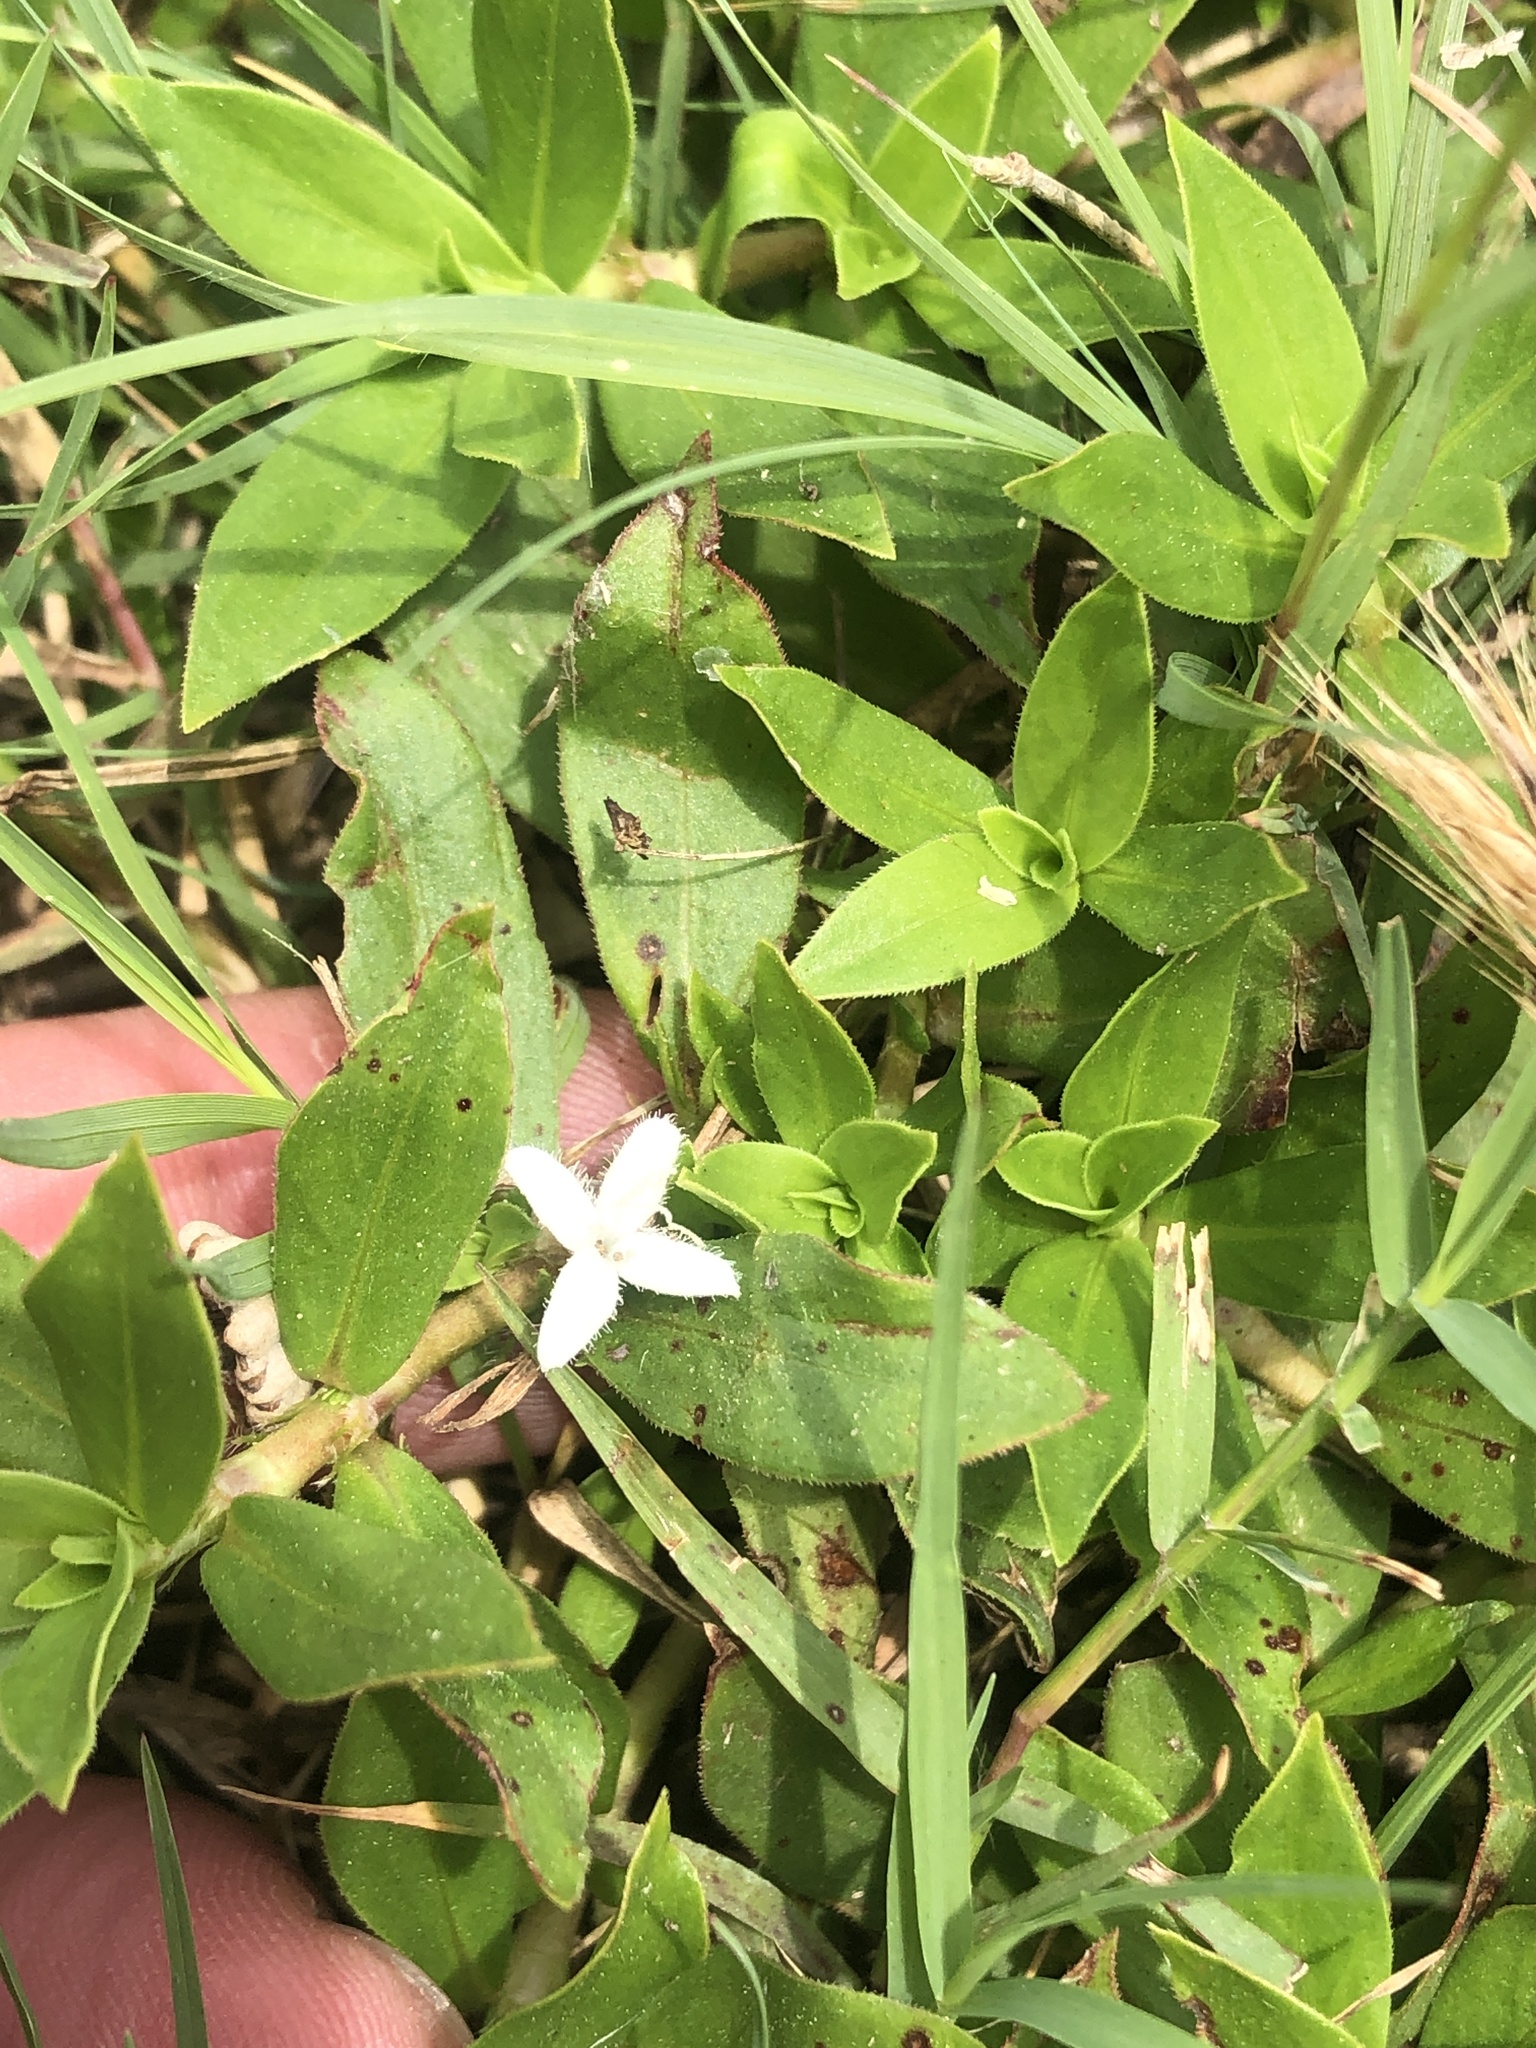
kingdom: Plantae
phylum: Tracheophyta
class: Magnoliopsida
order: Gentianales
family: Rubiaceae
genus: Diodia
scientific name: Diodia virginiana
